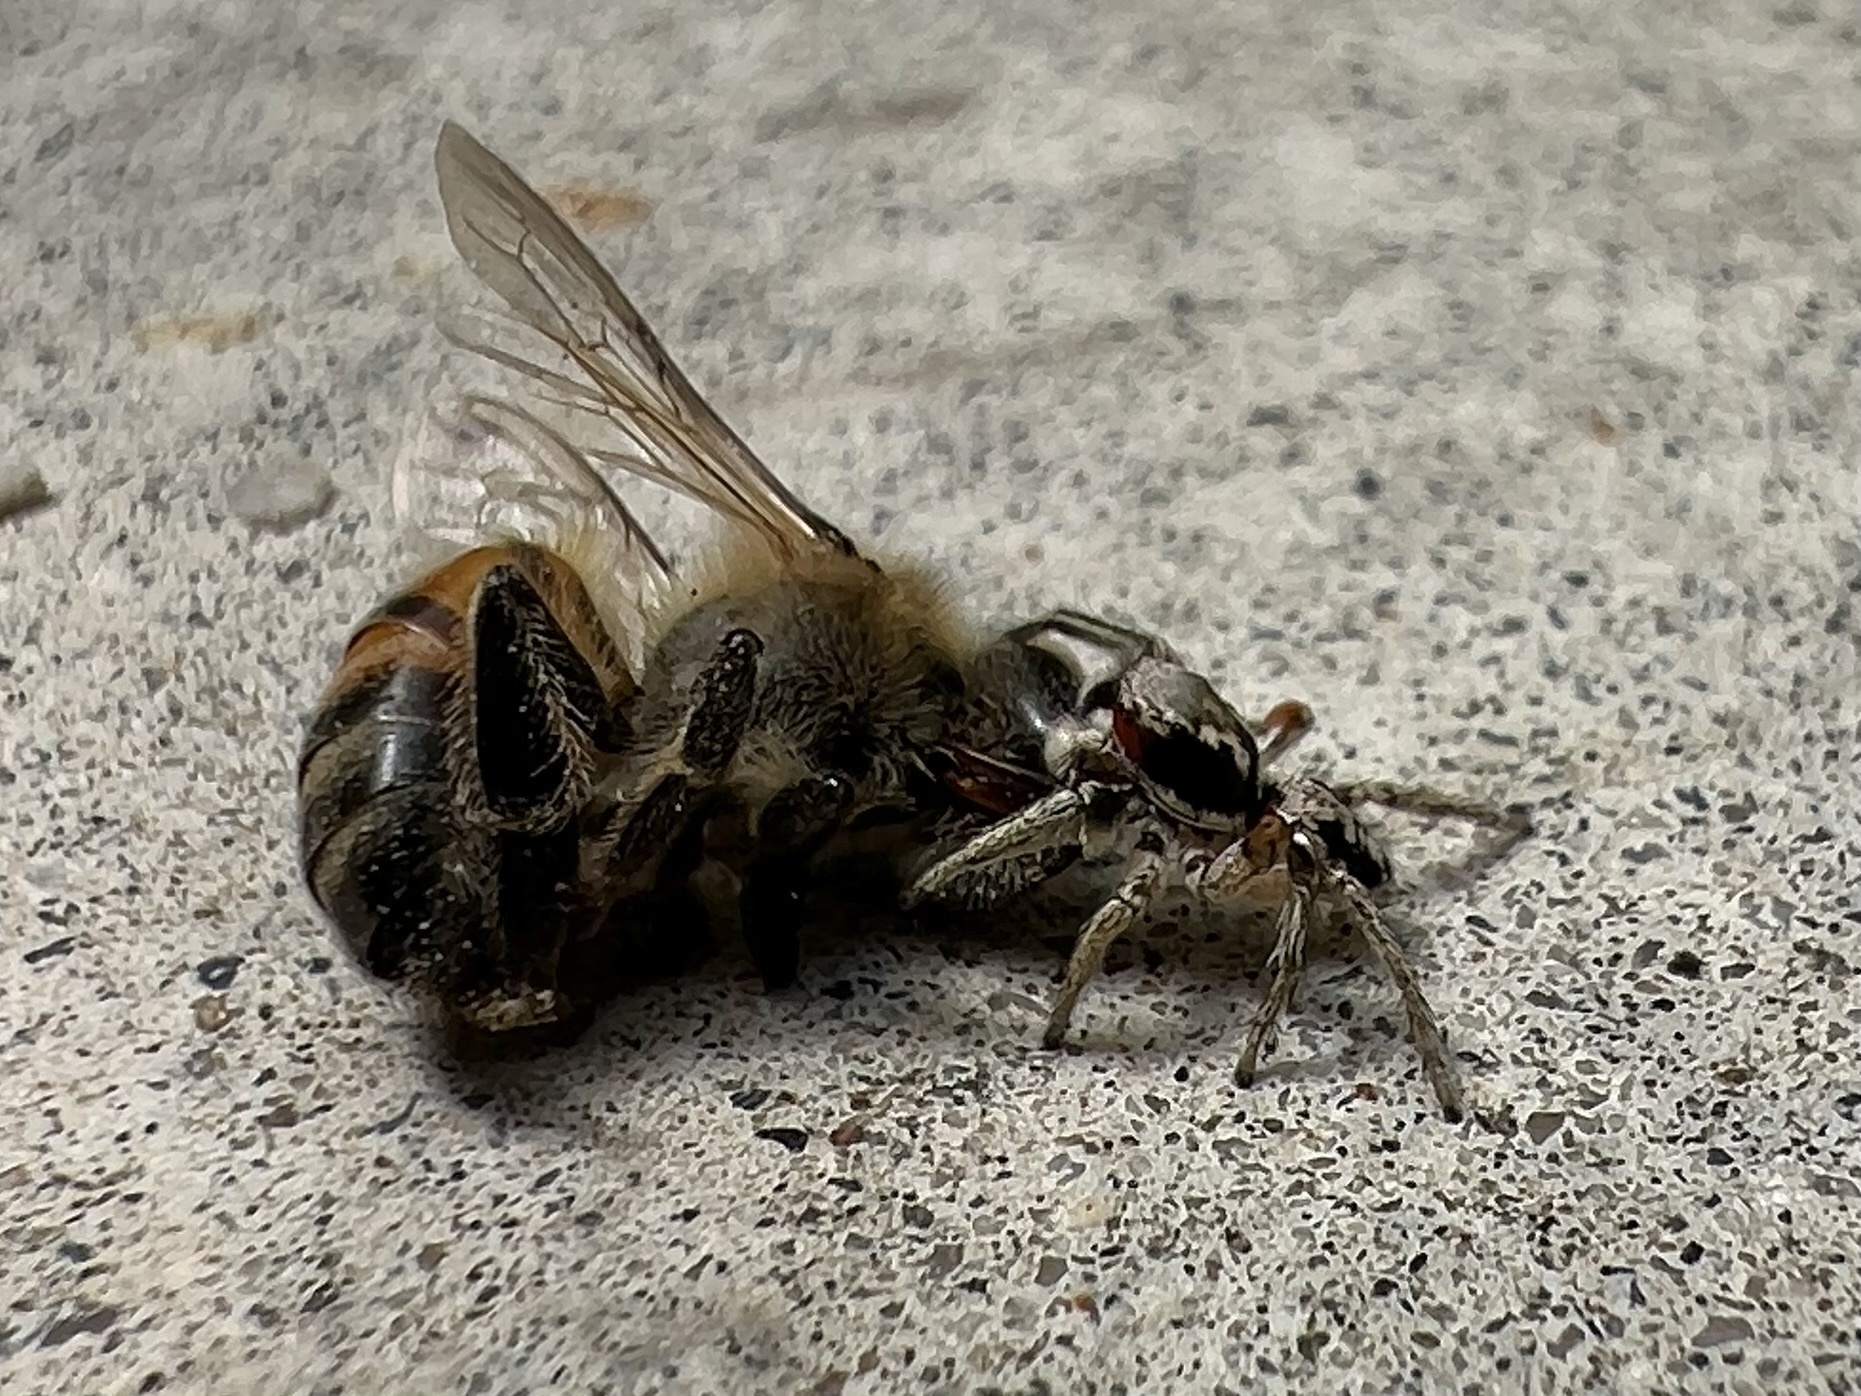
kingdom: Animalia
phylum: Arthropoda
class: Arachnida
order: Araneae
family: Salticidae
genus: Habronattus
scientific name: Habronattus pyrrithrix
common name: Jumping spider
